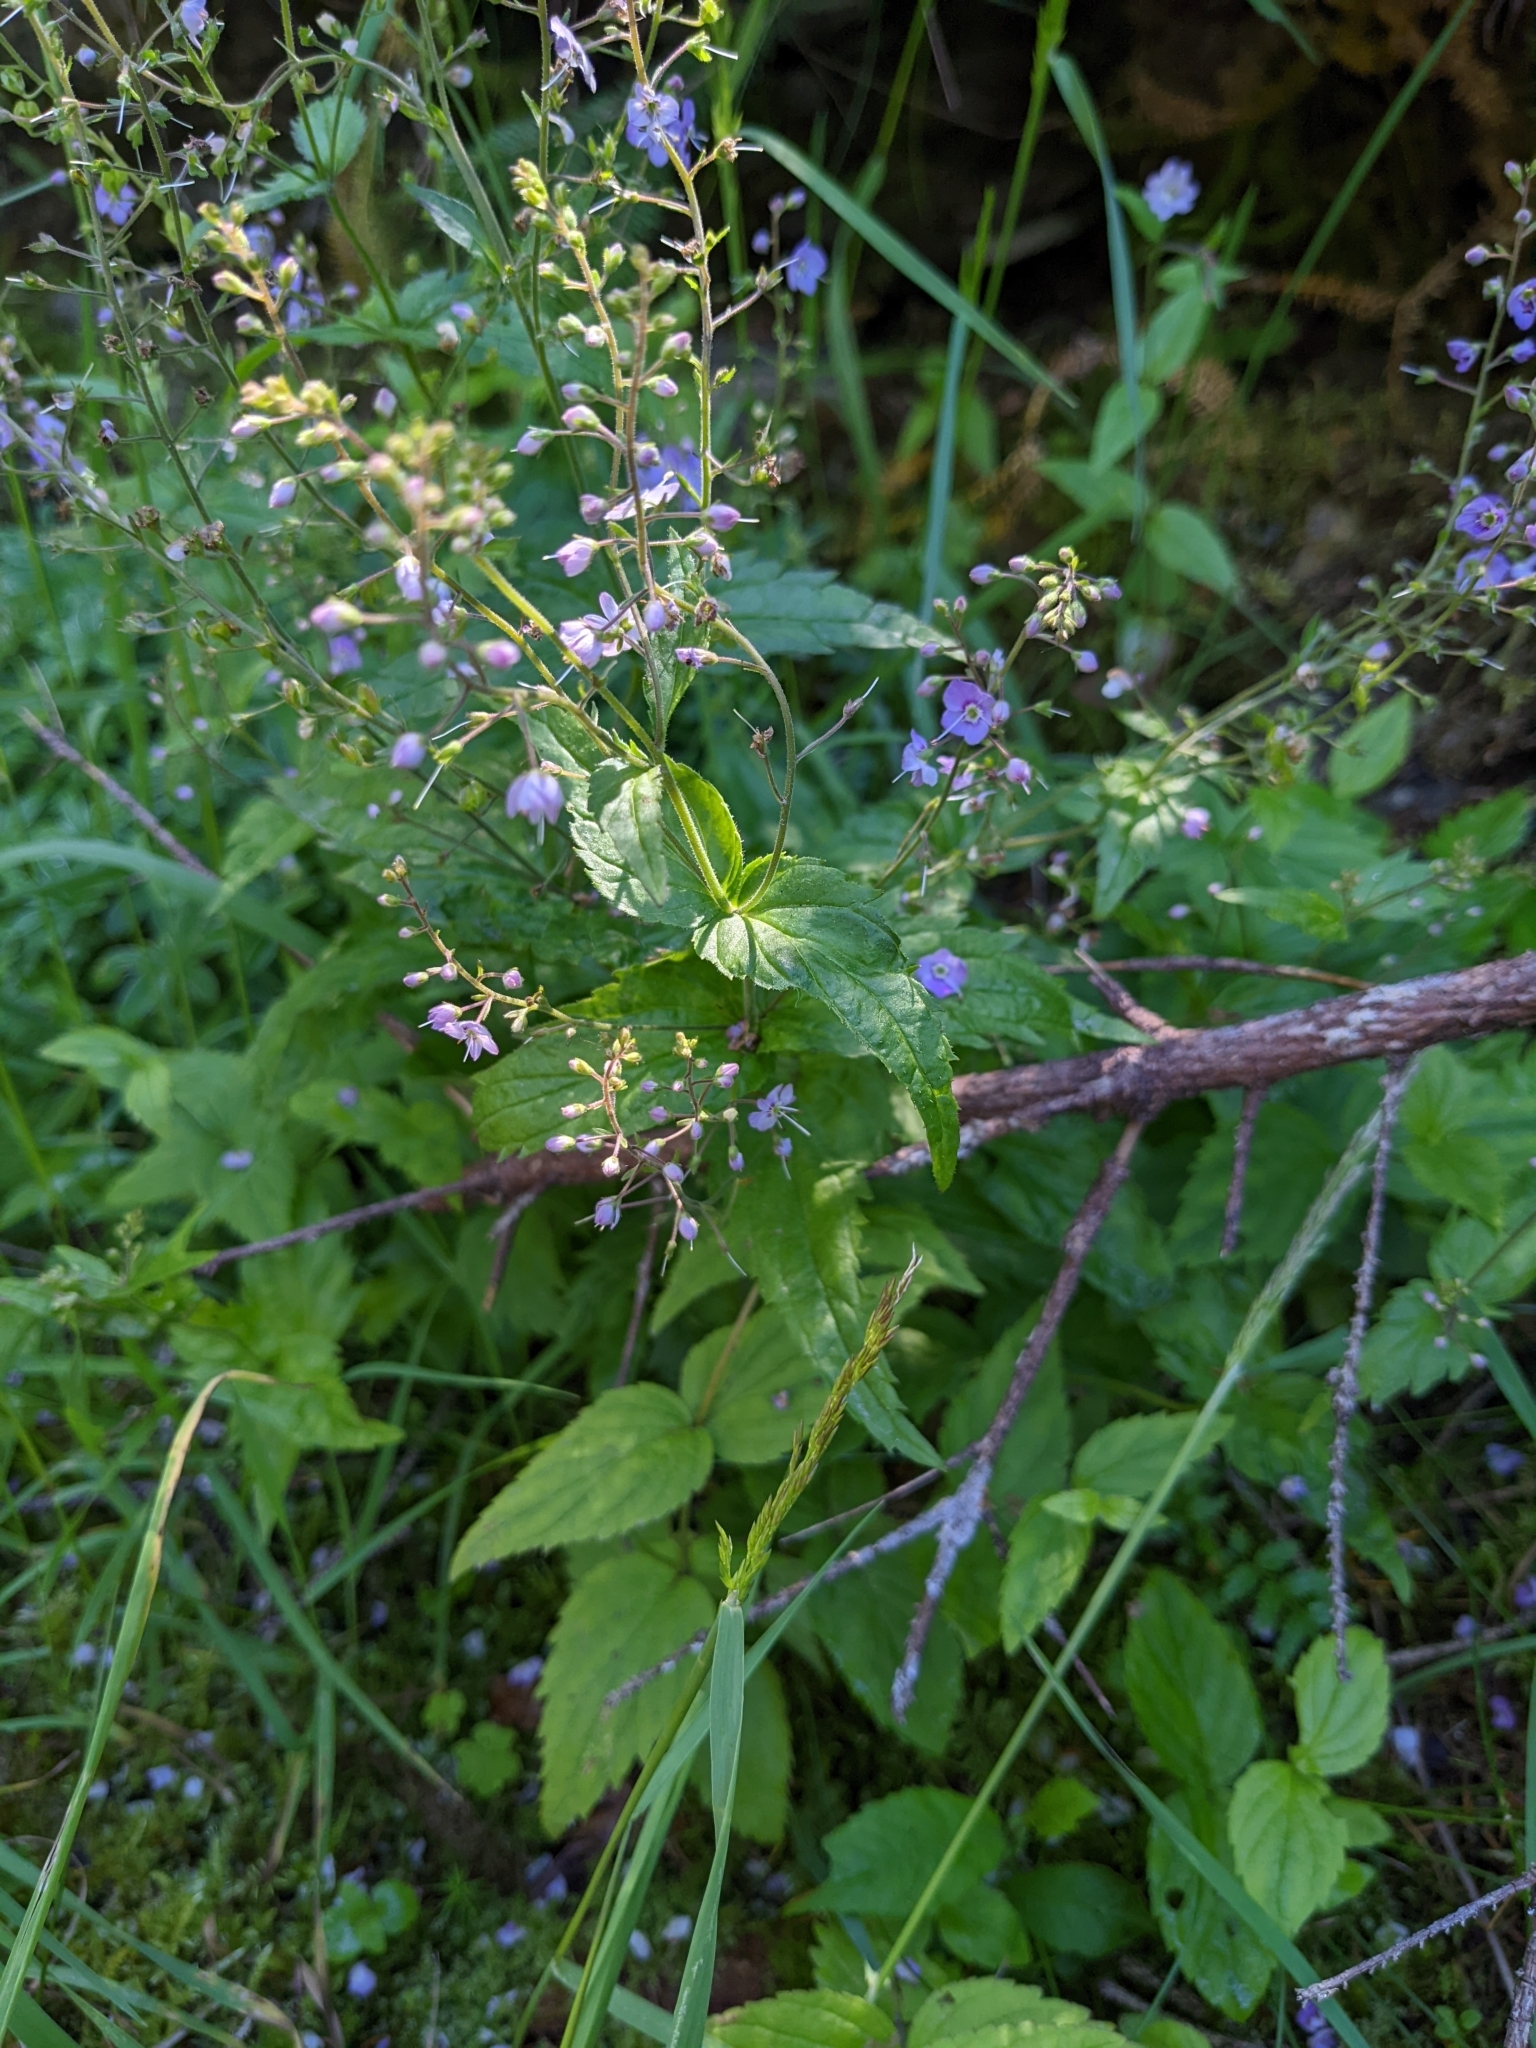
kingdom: Plantae
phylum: Tracheophyta
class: Magnoliopsida
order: Lamiales
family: Plantaginaceae
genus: Veronica
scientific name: Veronica urticifolia
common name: Nettle-leaf speedwell
